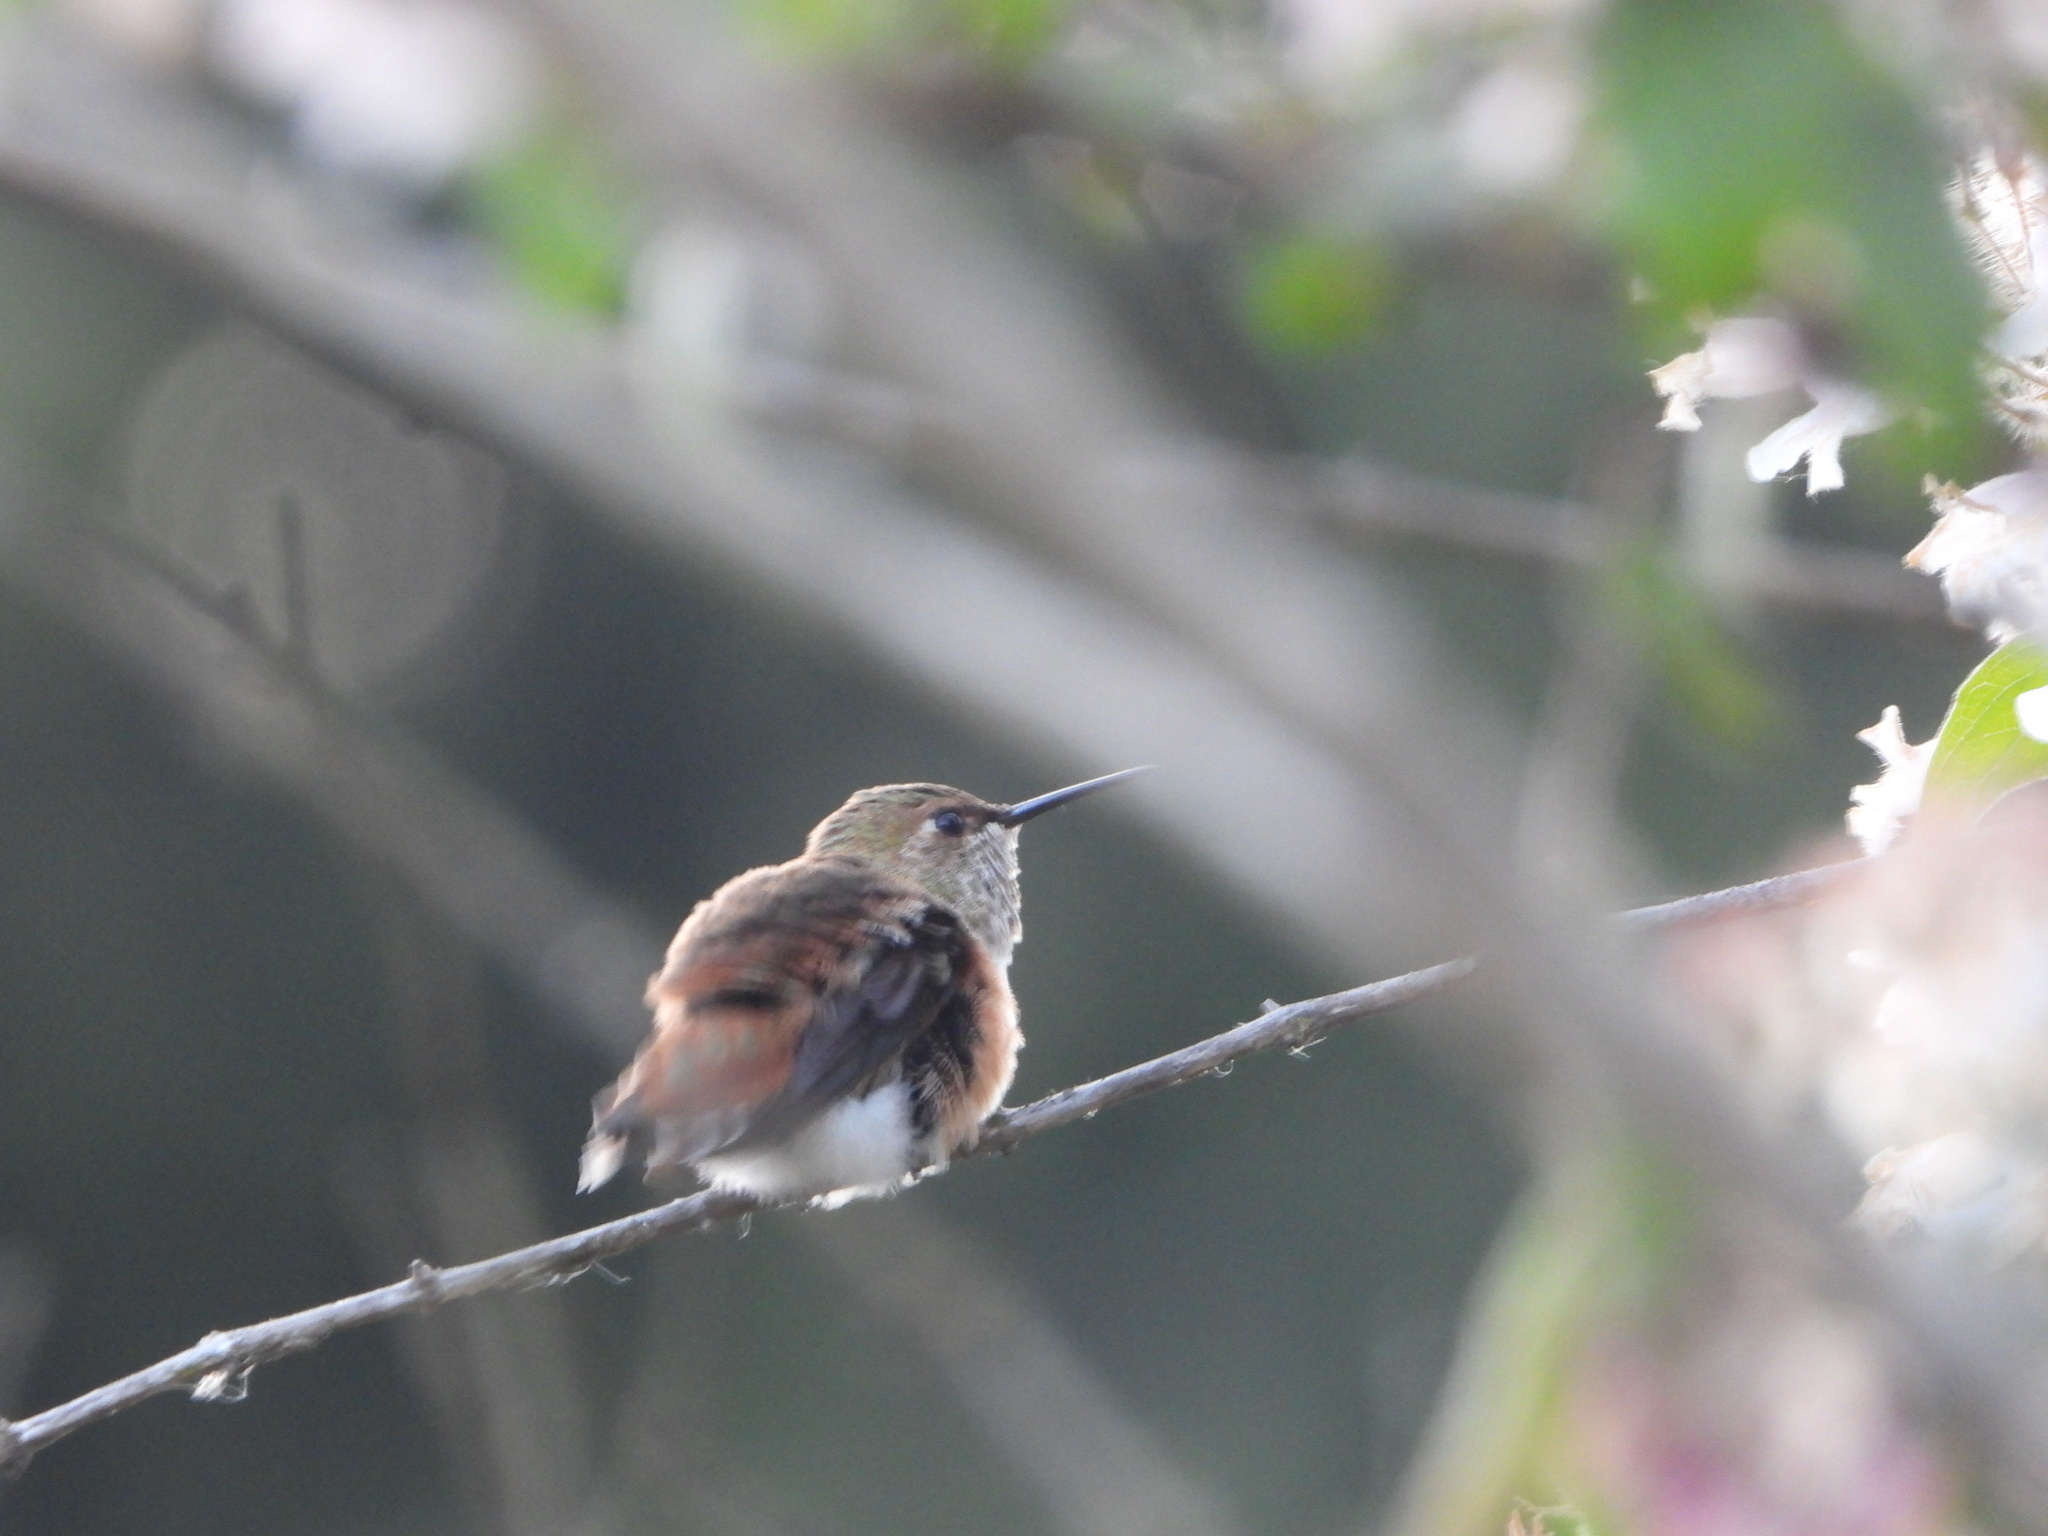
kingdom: Animalia
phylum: Chordata
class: Aves
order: Apodiformes
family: Trochilidae
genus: Selasphorus
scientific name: Selasphorus rufus
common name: Rufous hummingbird
